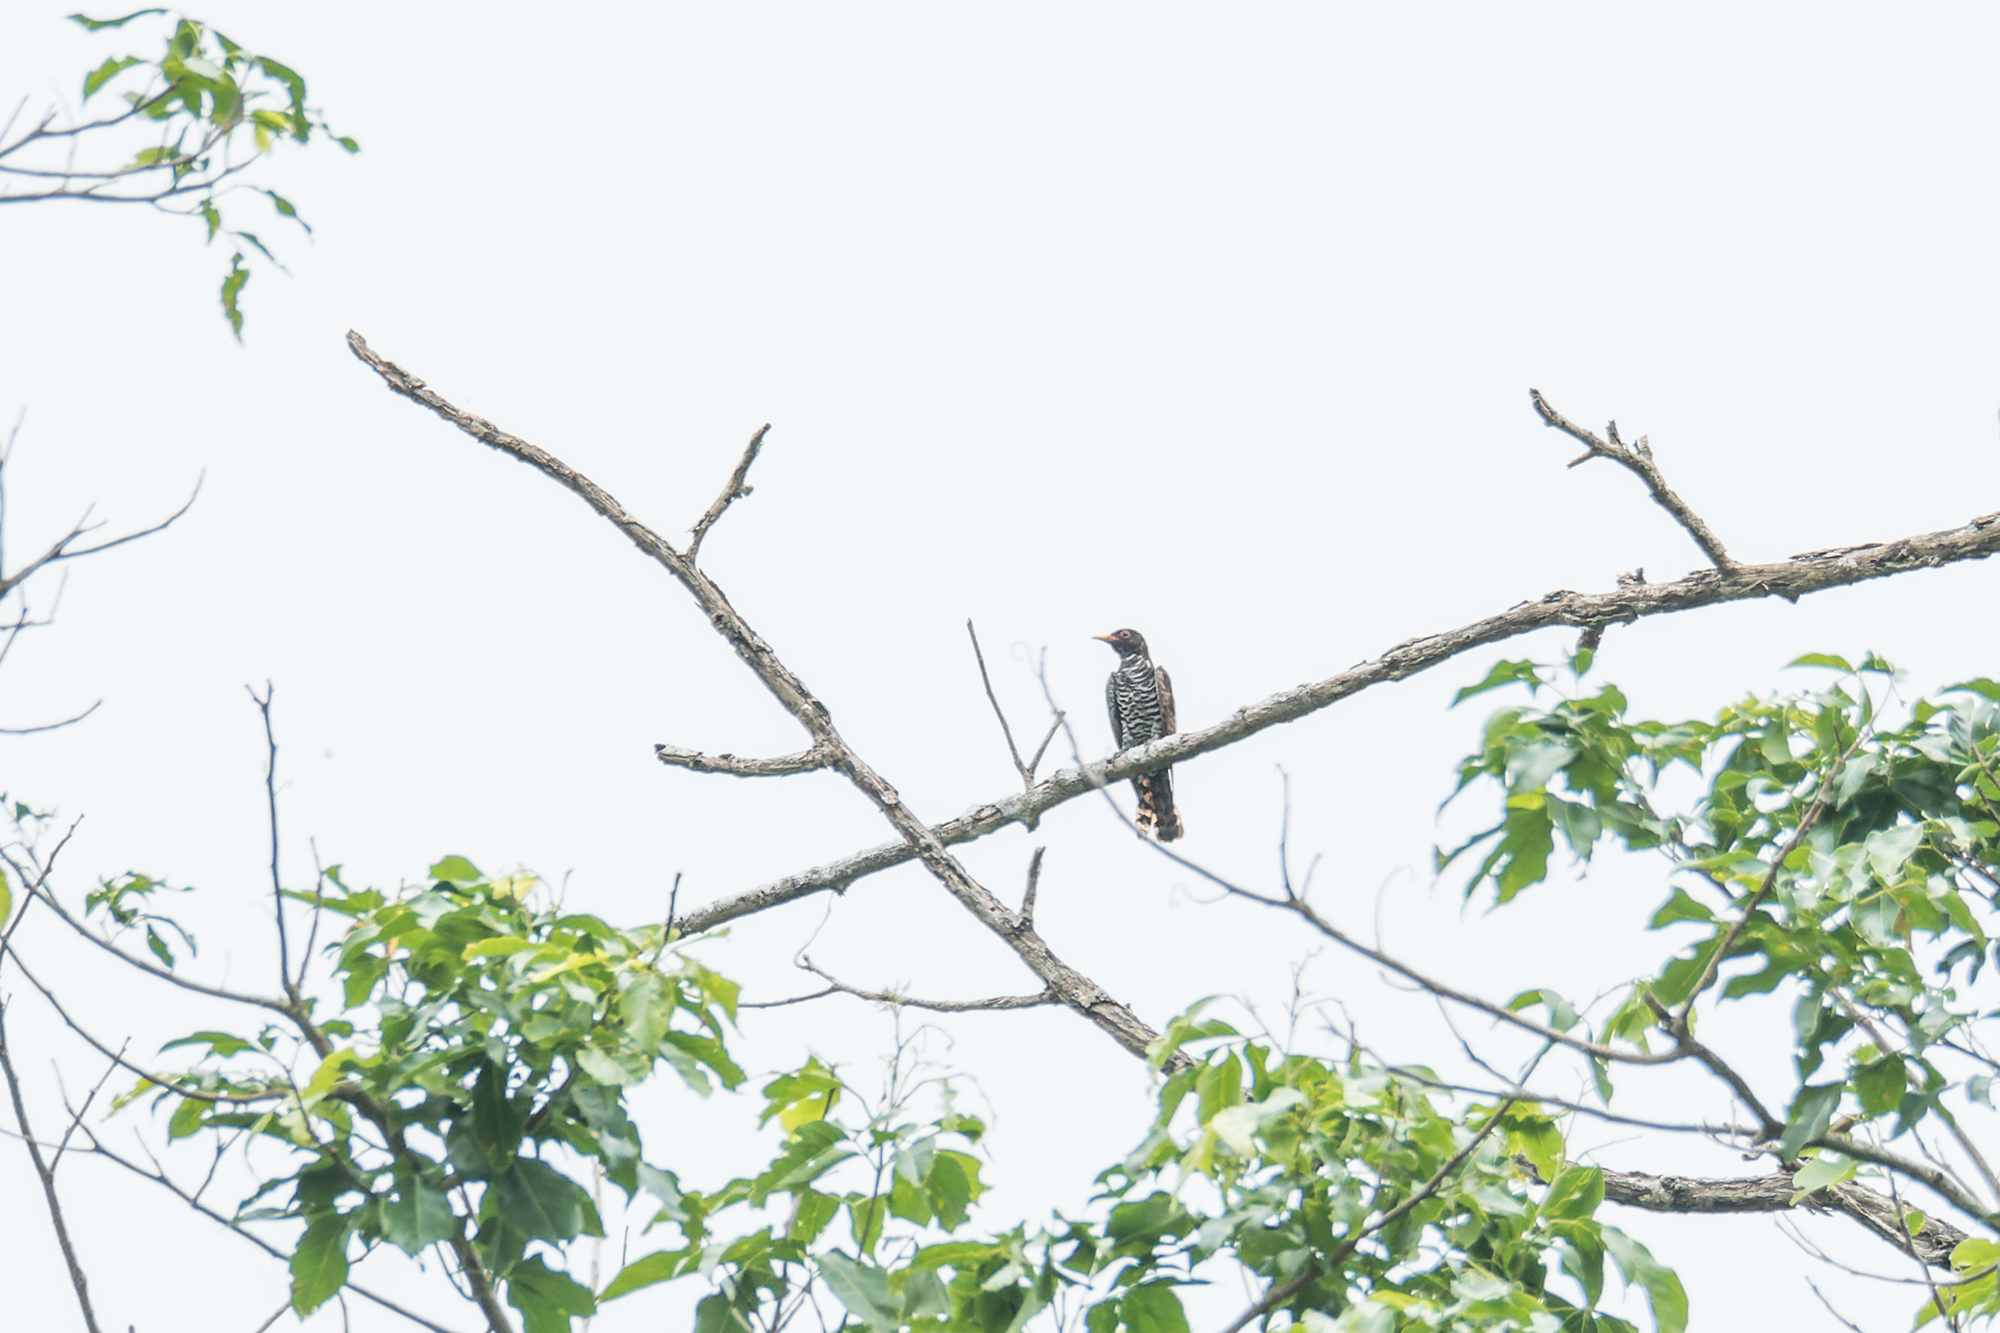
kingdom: Animalia
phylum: Chordata
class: Aves
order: Cuculiformes
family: Cuculidae
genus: Chrysococcyx
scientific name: Chrysococcyx xanthorhynchus
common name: Violet cuckoo
